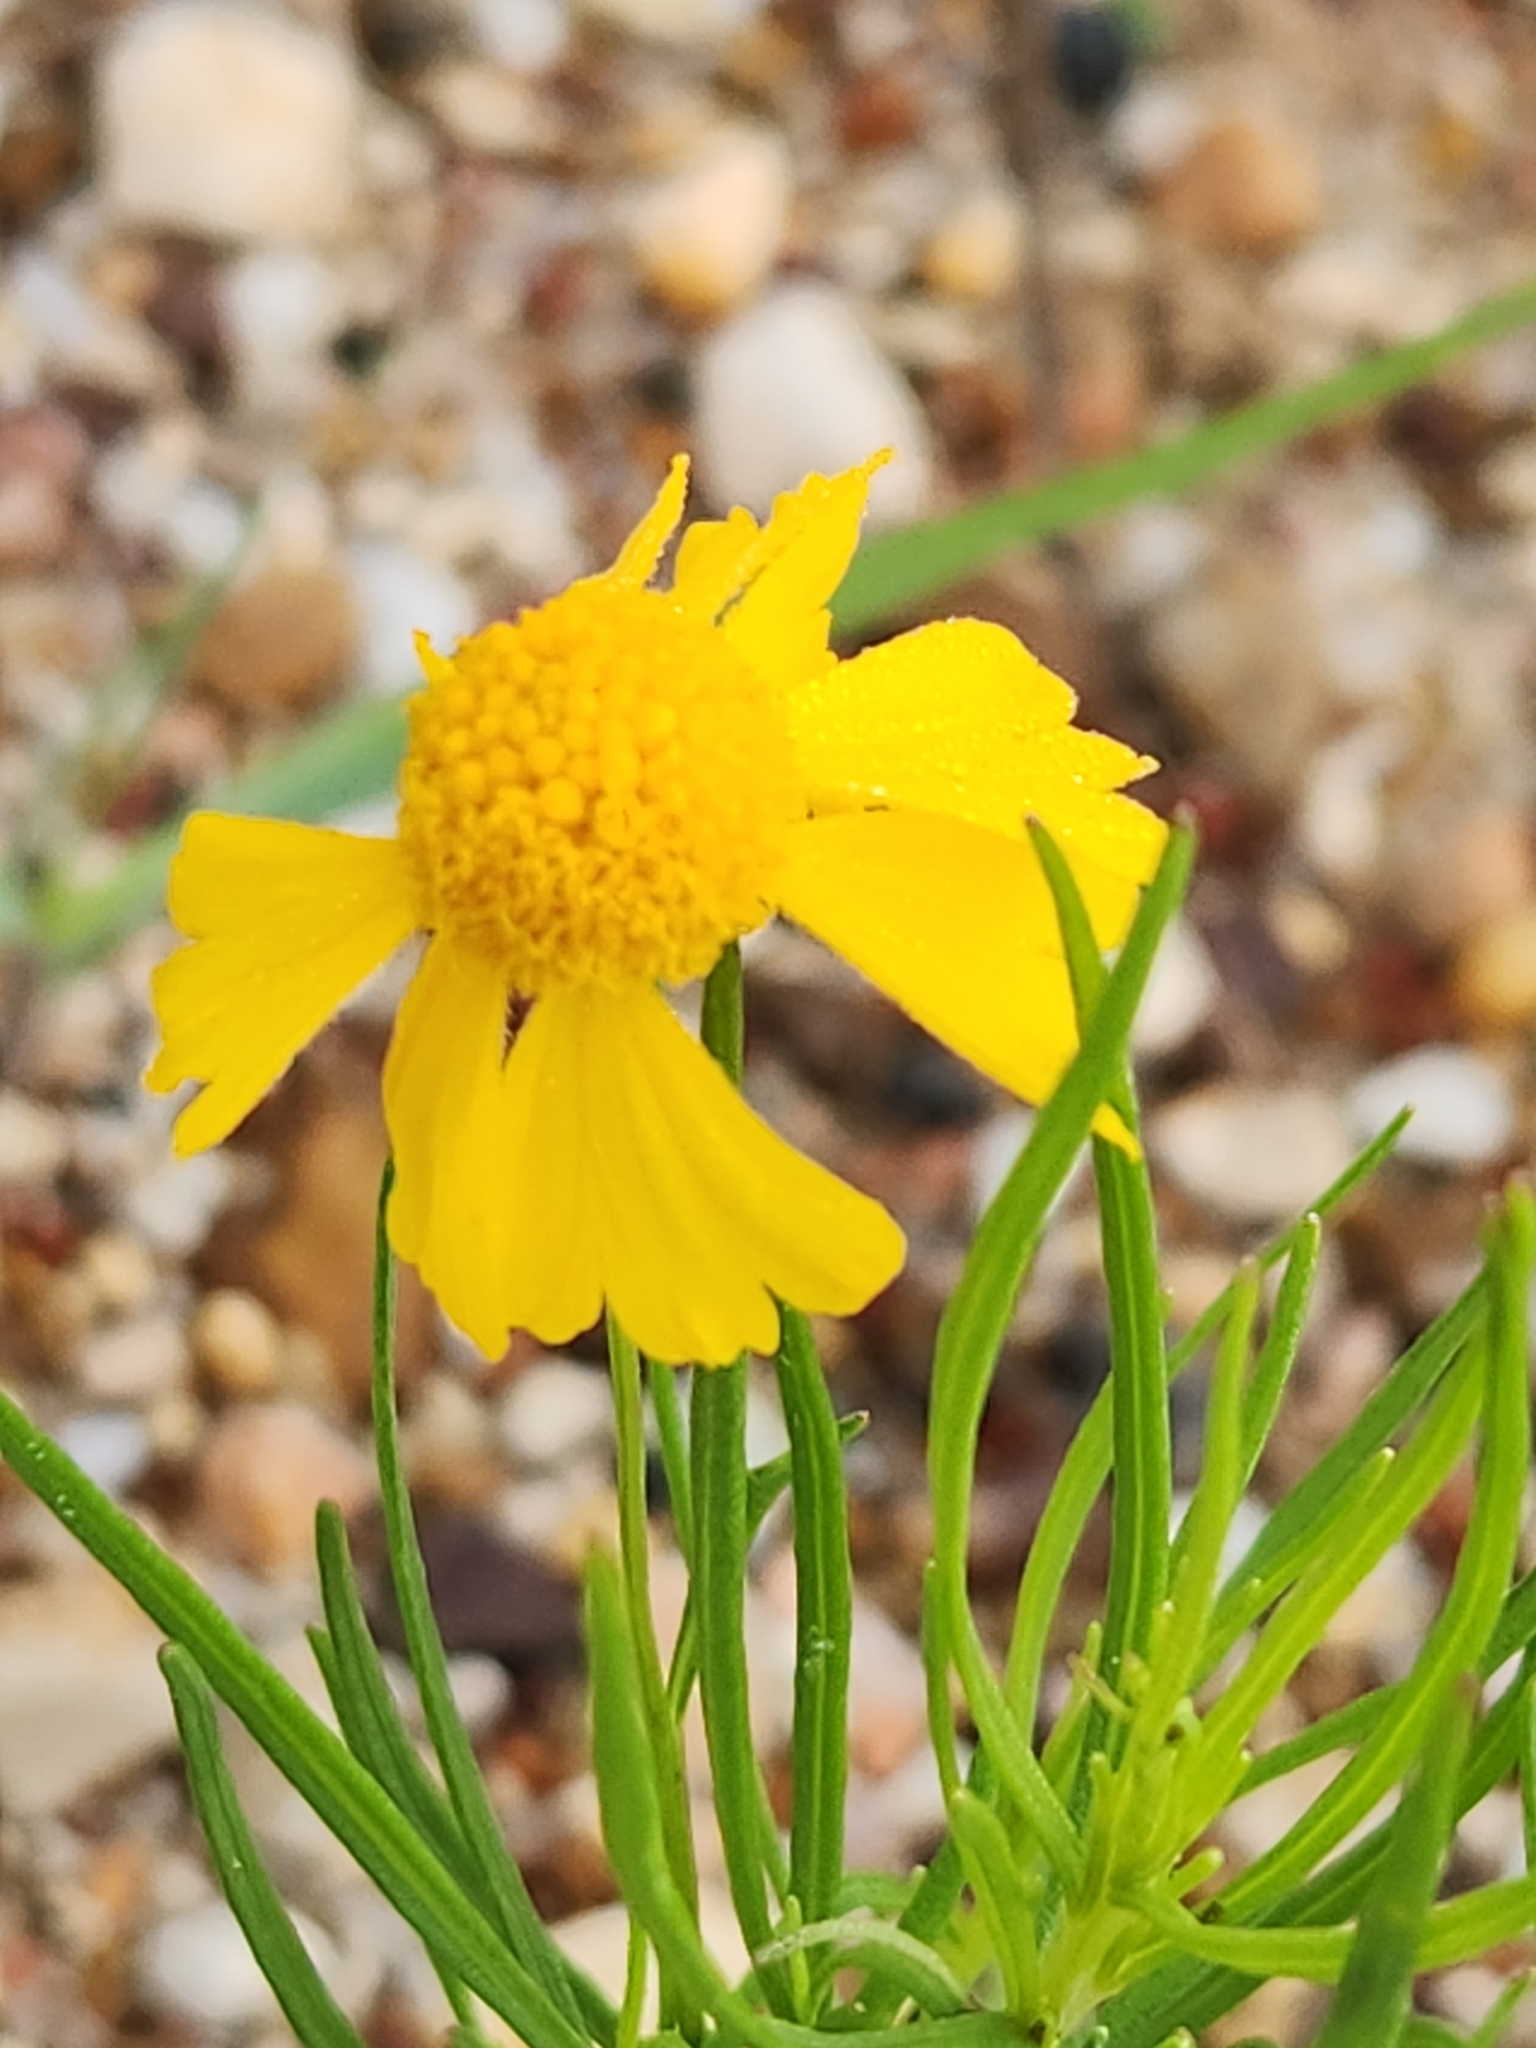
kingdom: Plantae
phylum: Tracheophyta
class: Magnoliopsida
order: Asterales
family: Asteraceae
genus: Helenium
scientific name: Helenium amarum
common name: Bitter sneezeweed
